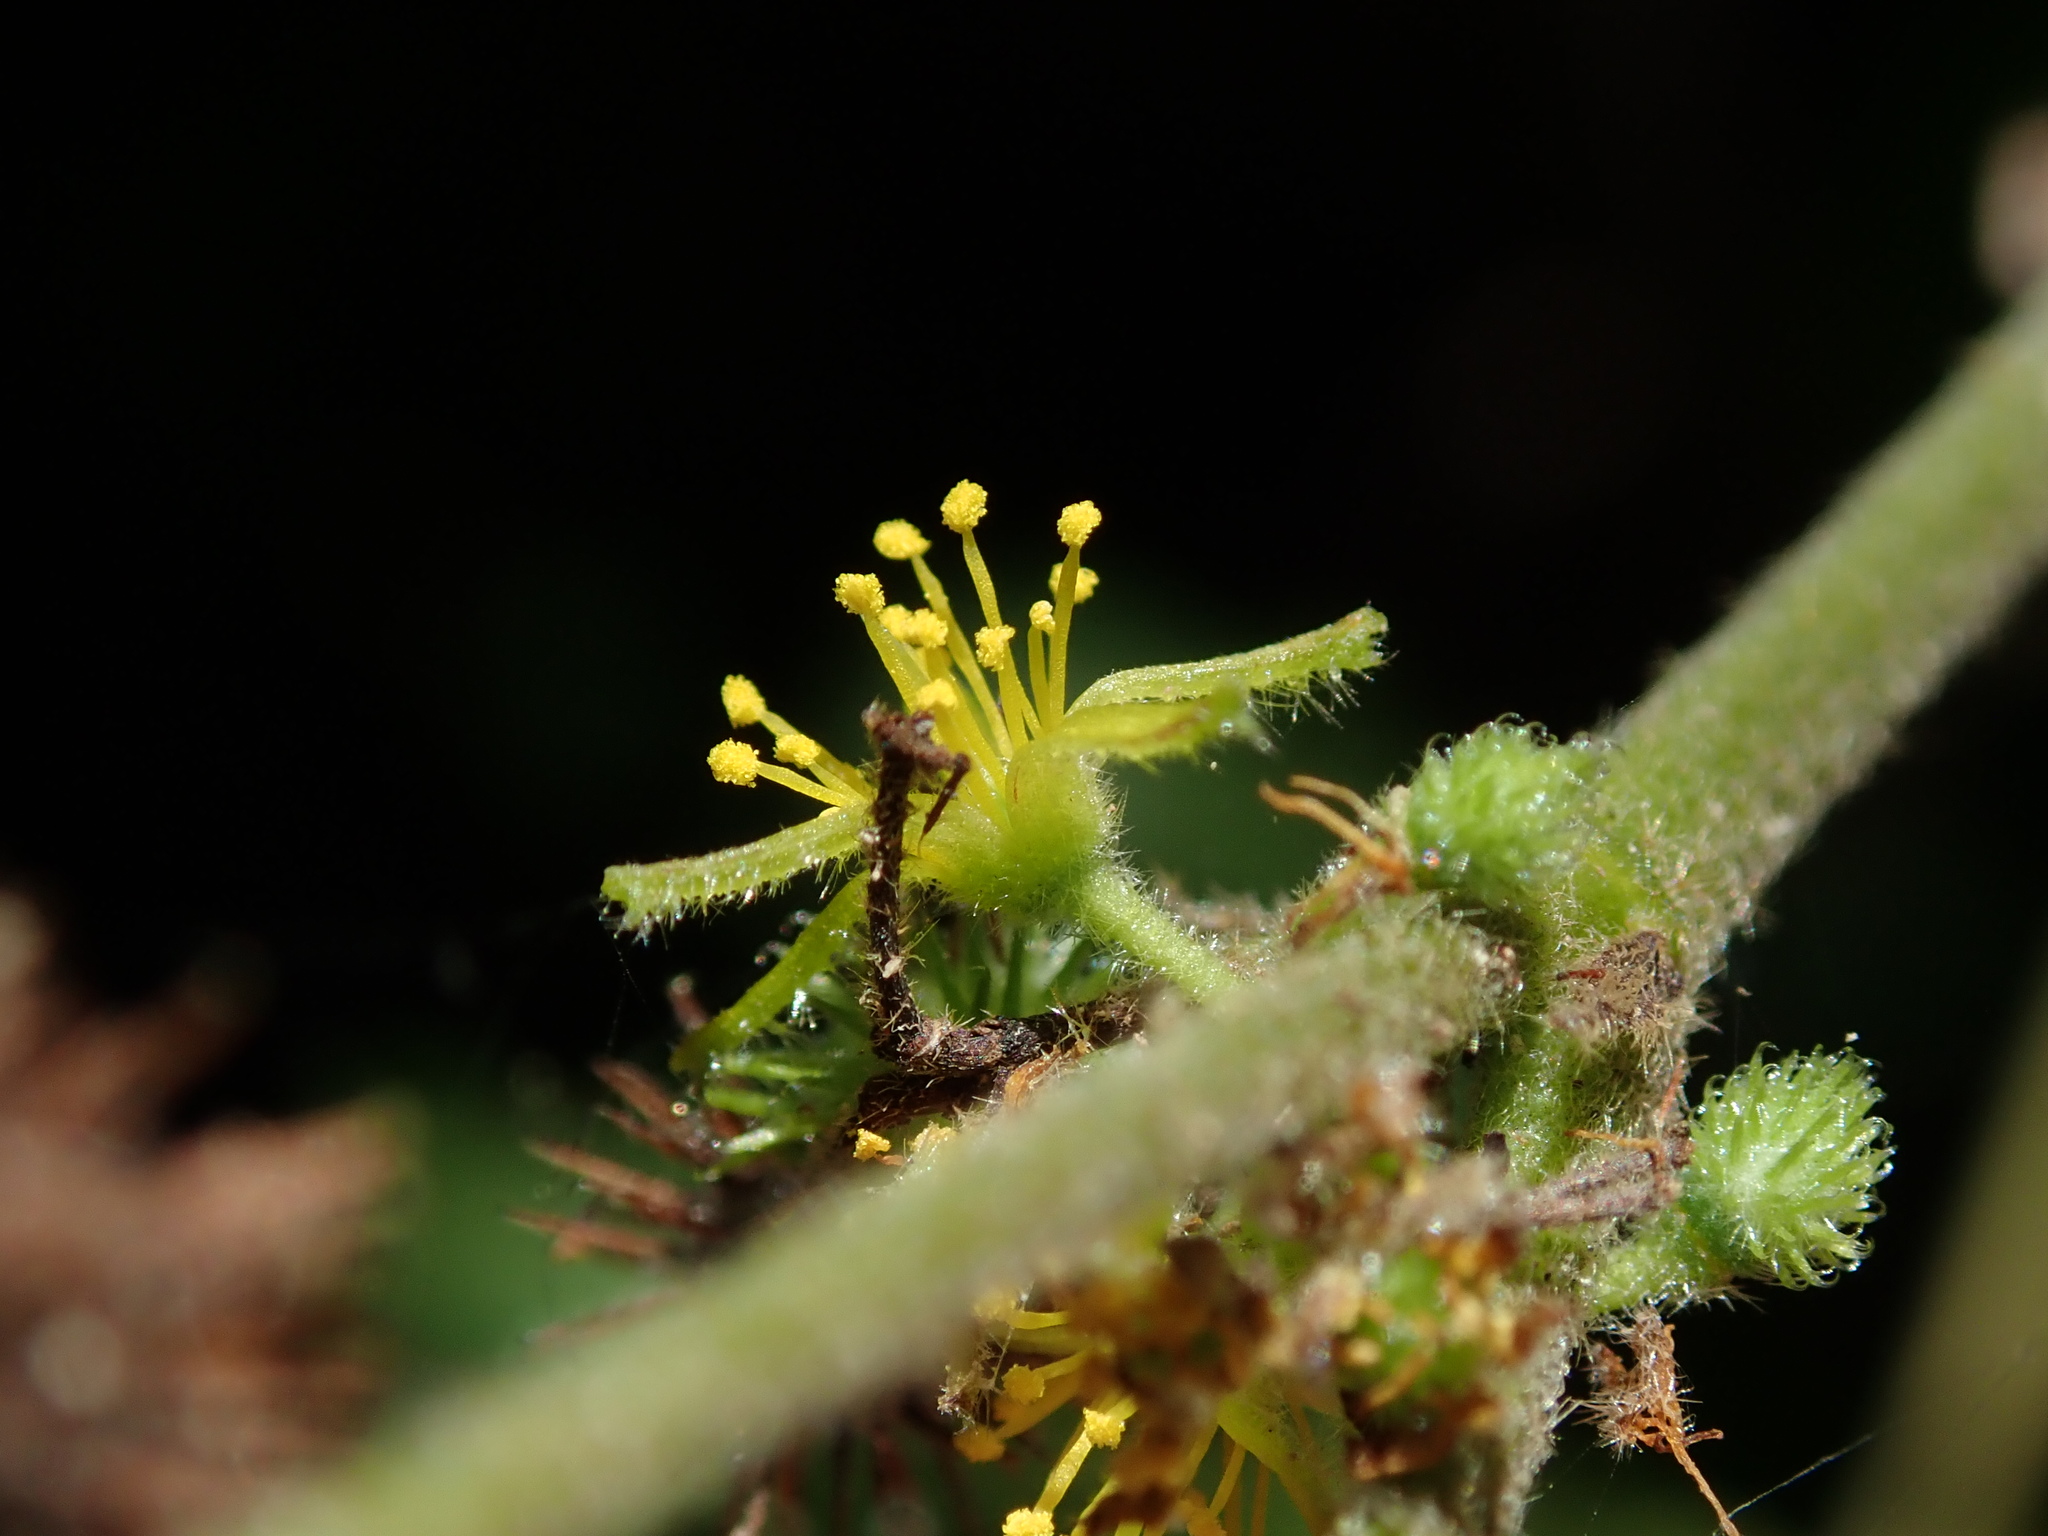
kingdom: Plantae
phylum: Tracheophyta
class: Magnoliopsida
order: Malvales
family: Malvaceae
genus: Triumfetta
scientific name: Triumfetta semitriloba
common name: Sacramento burbark
